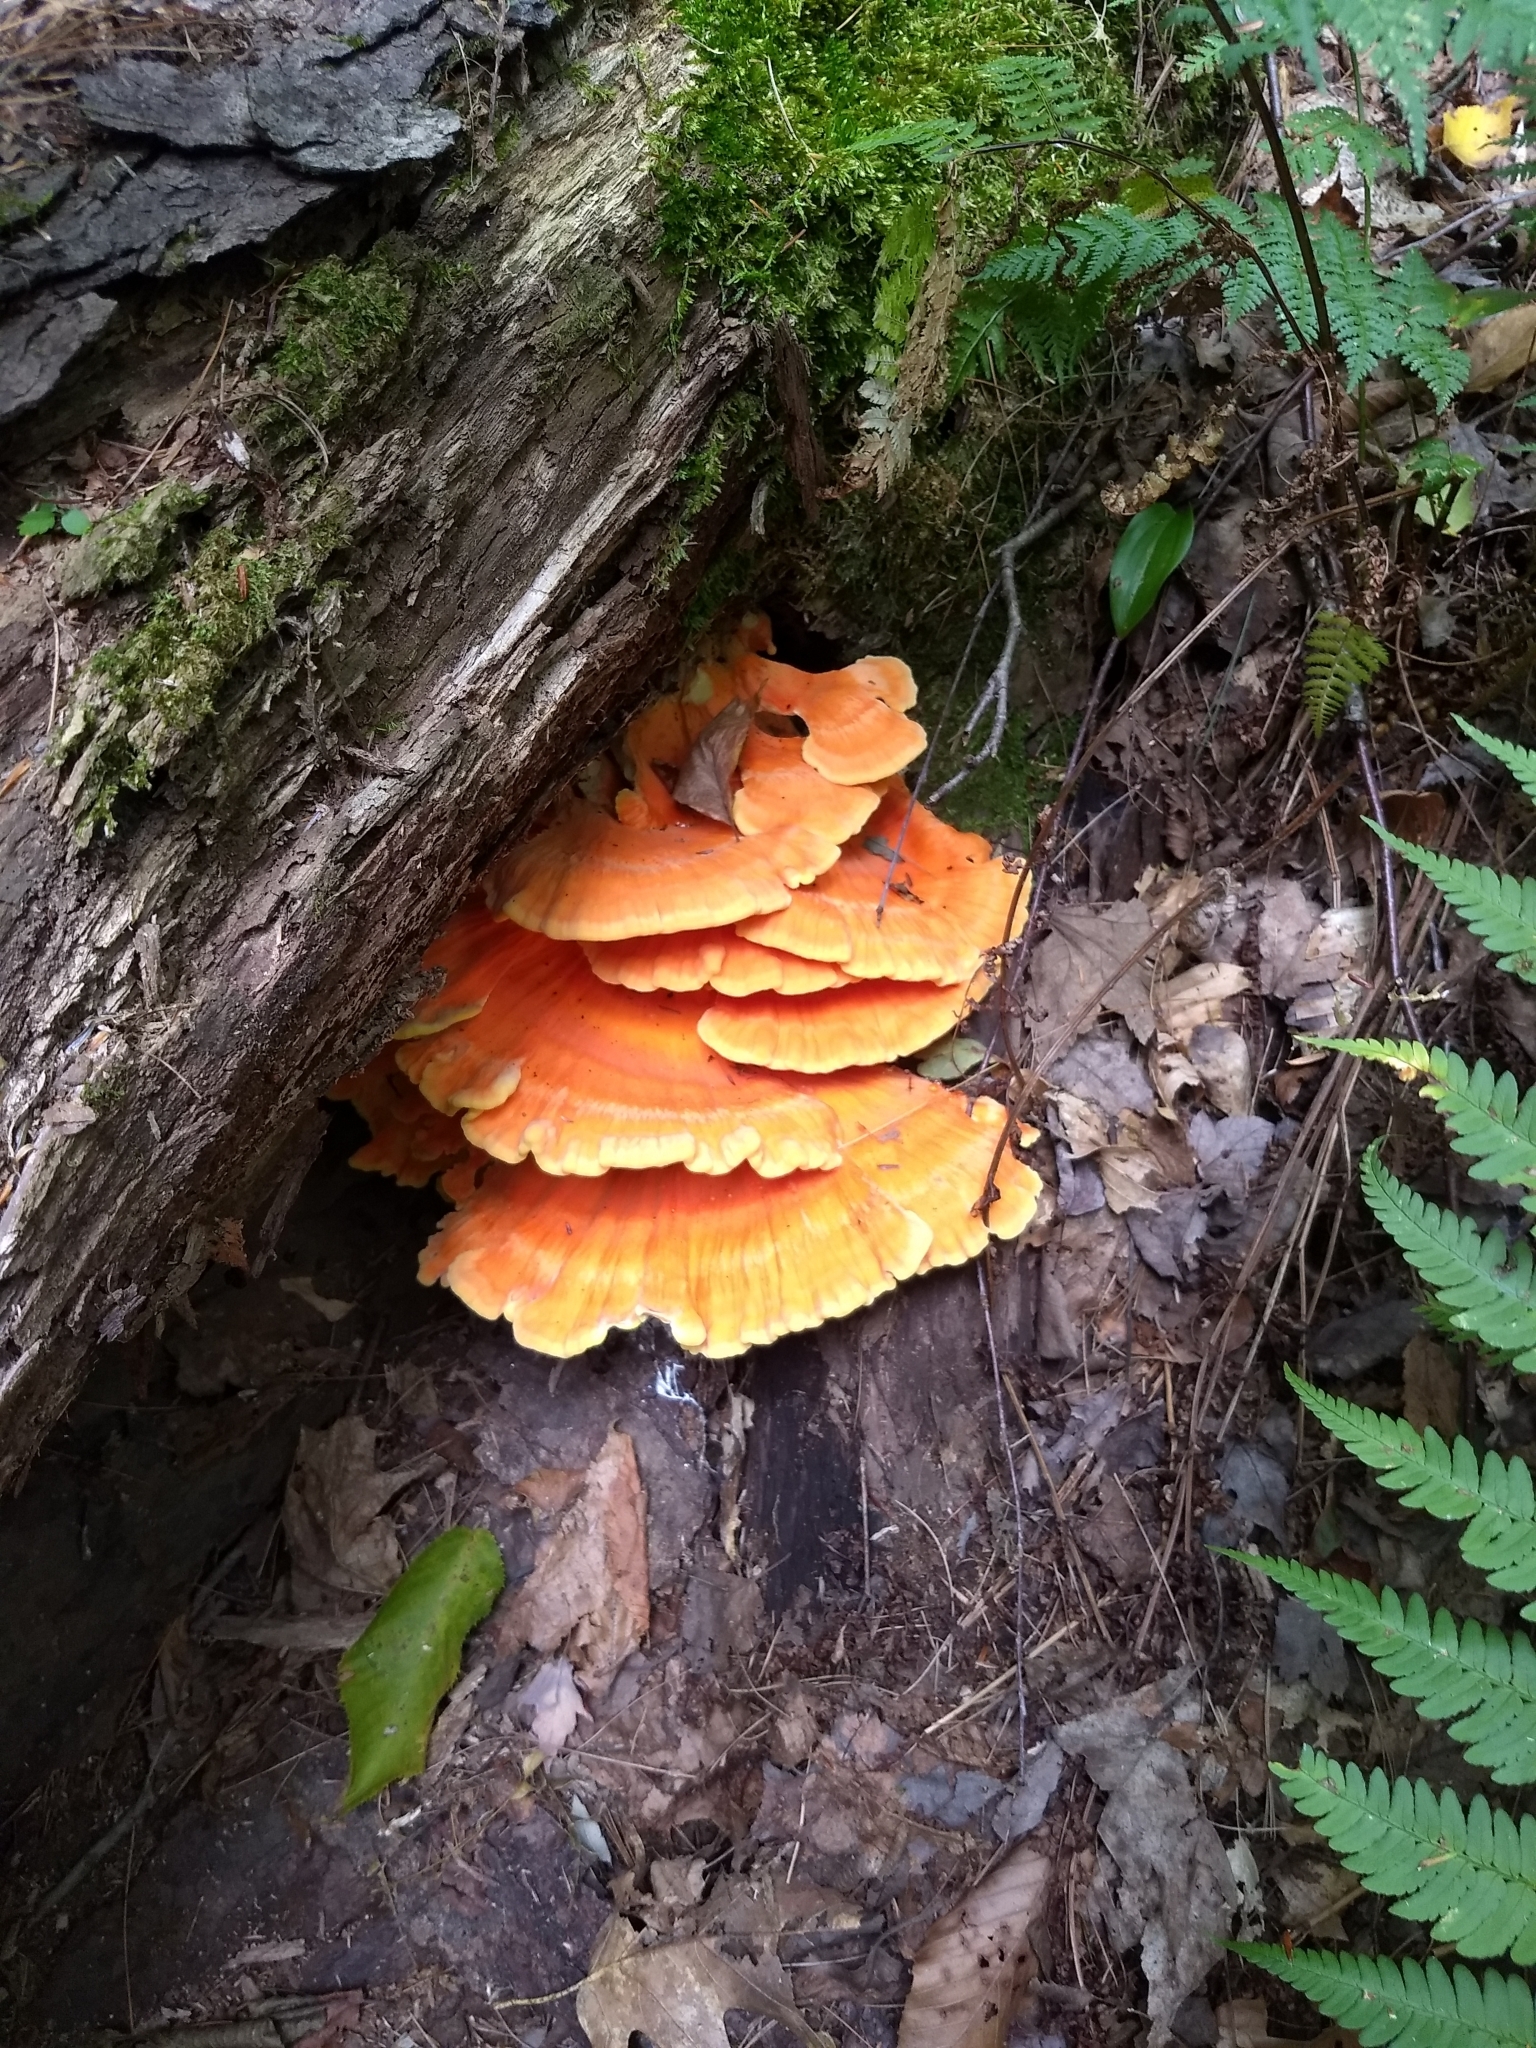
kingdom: Fungi
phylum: Basidiomycota
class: Agaricomycetes
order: Polyporales
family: Laetiporaceae
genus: Laetiporus
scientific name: Laetiporus sulphureus
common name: Chicken of the woods
